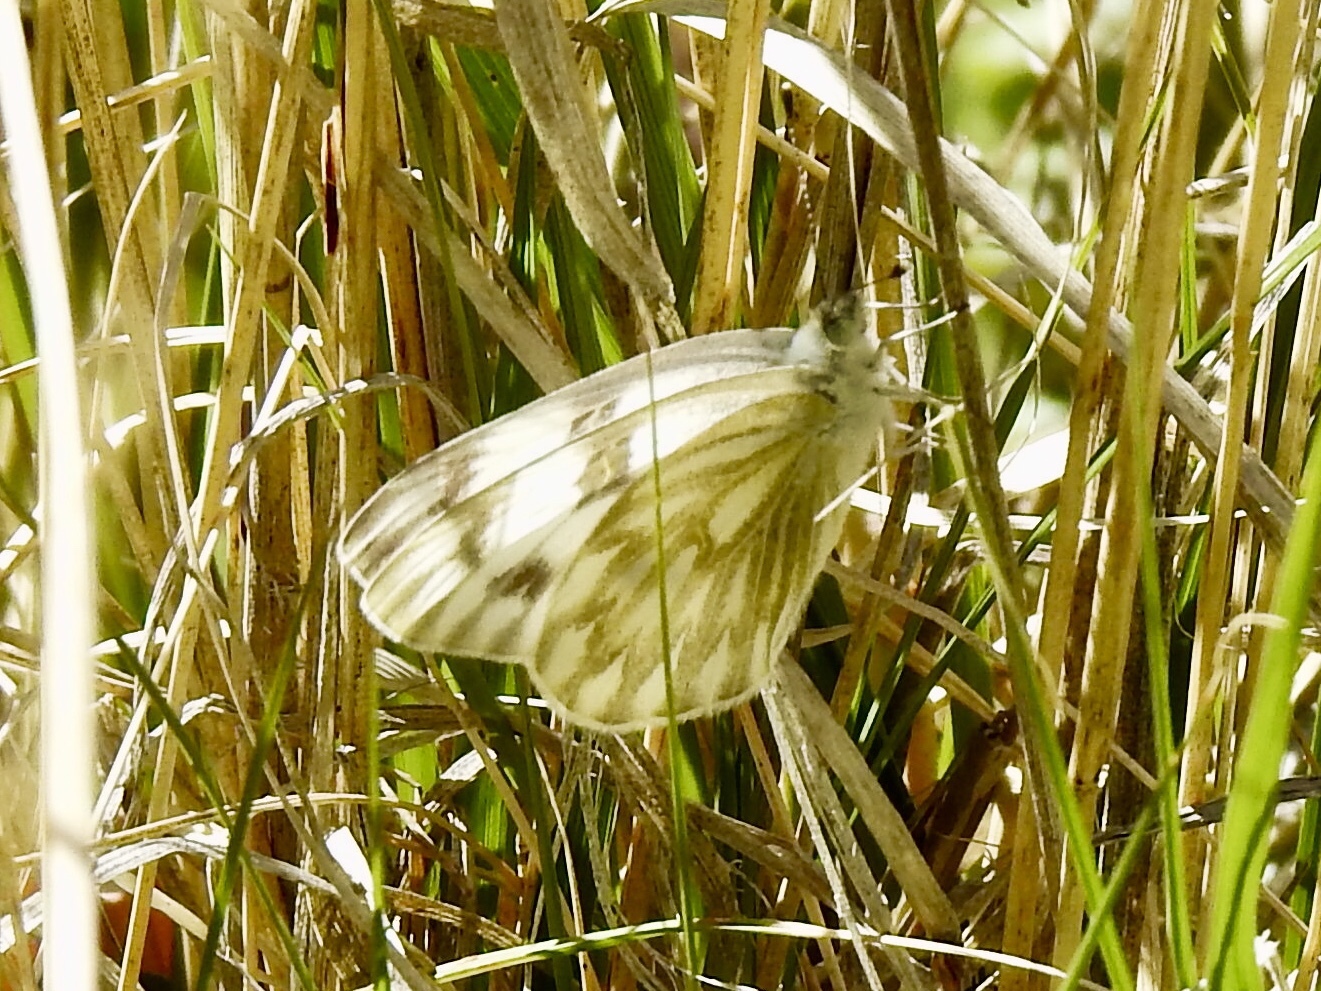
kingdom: Animalia
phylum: Arthropoda
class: Insecta
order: Lepidoptera
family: Pieridae
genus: Pontia
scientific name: Pontia protodice
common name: Checkered white
